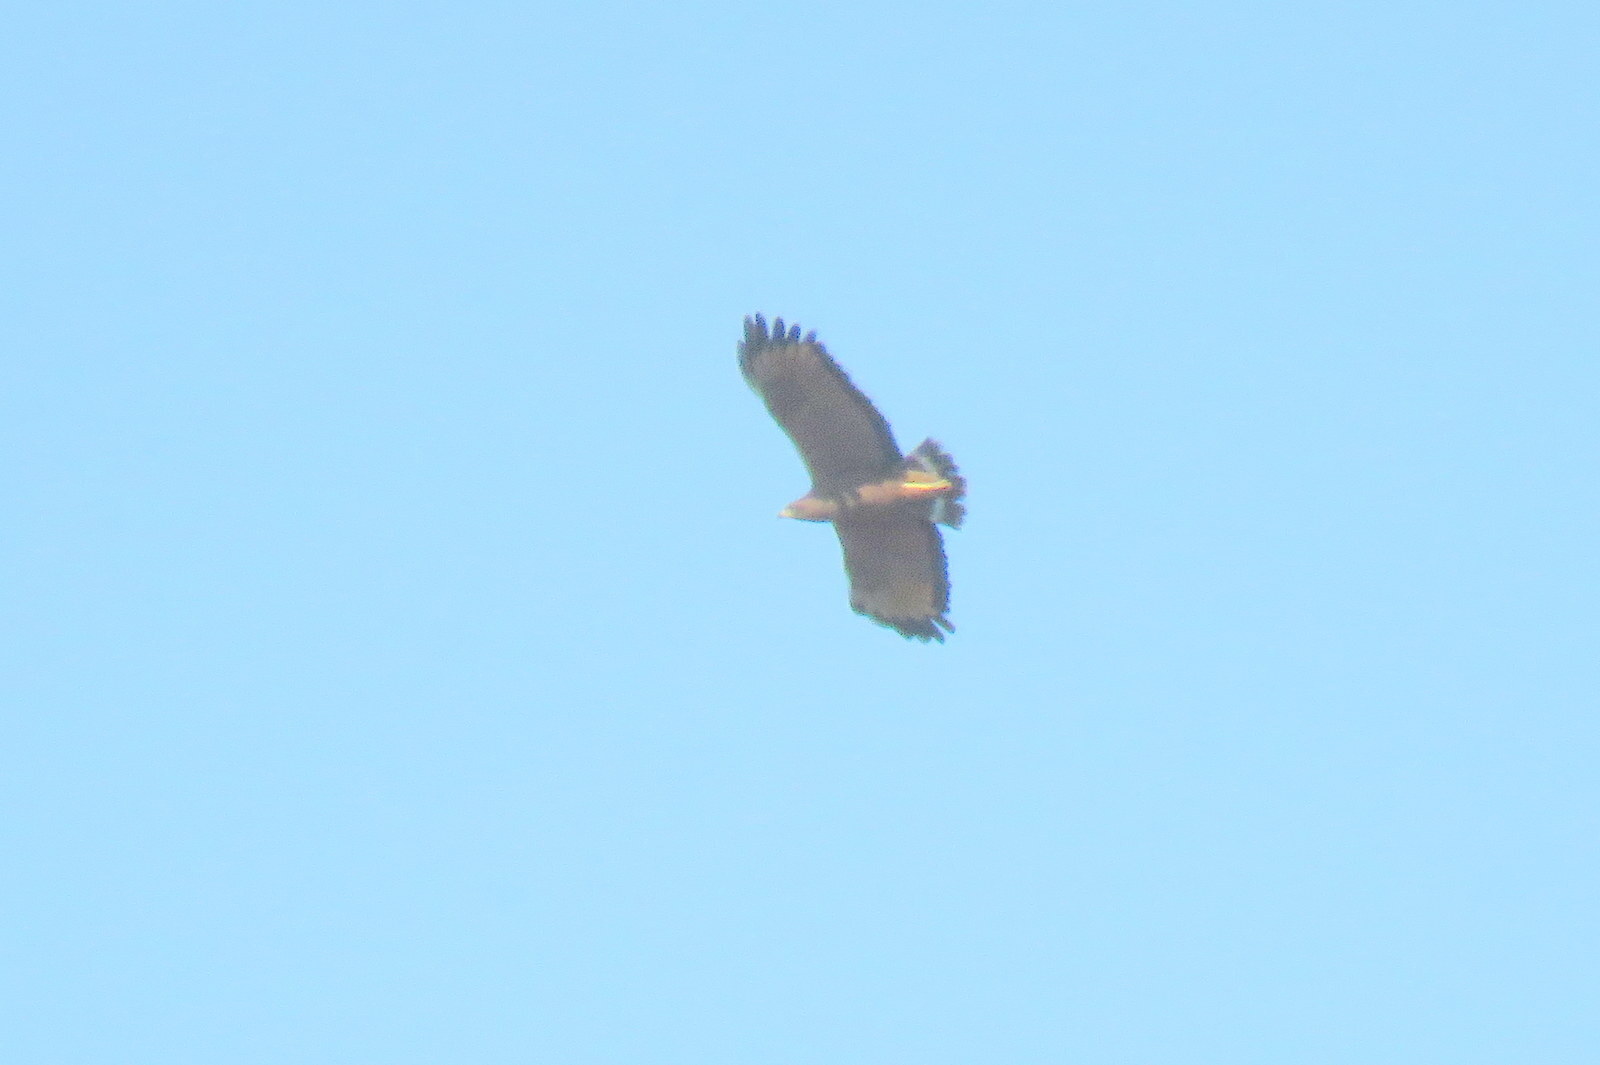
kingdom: Animalia
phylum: Chordata
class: Aves
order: Accipitriformes
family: Accipitridae
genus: Buteogallus
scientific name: Buteogallus meridionalis
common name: Savanna hawk
